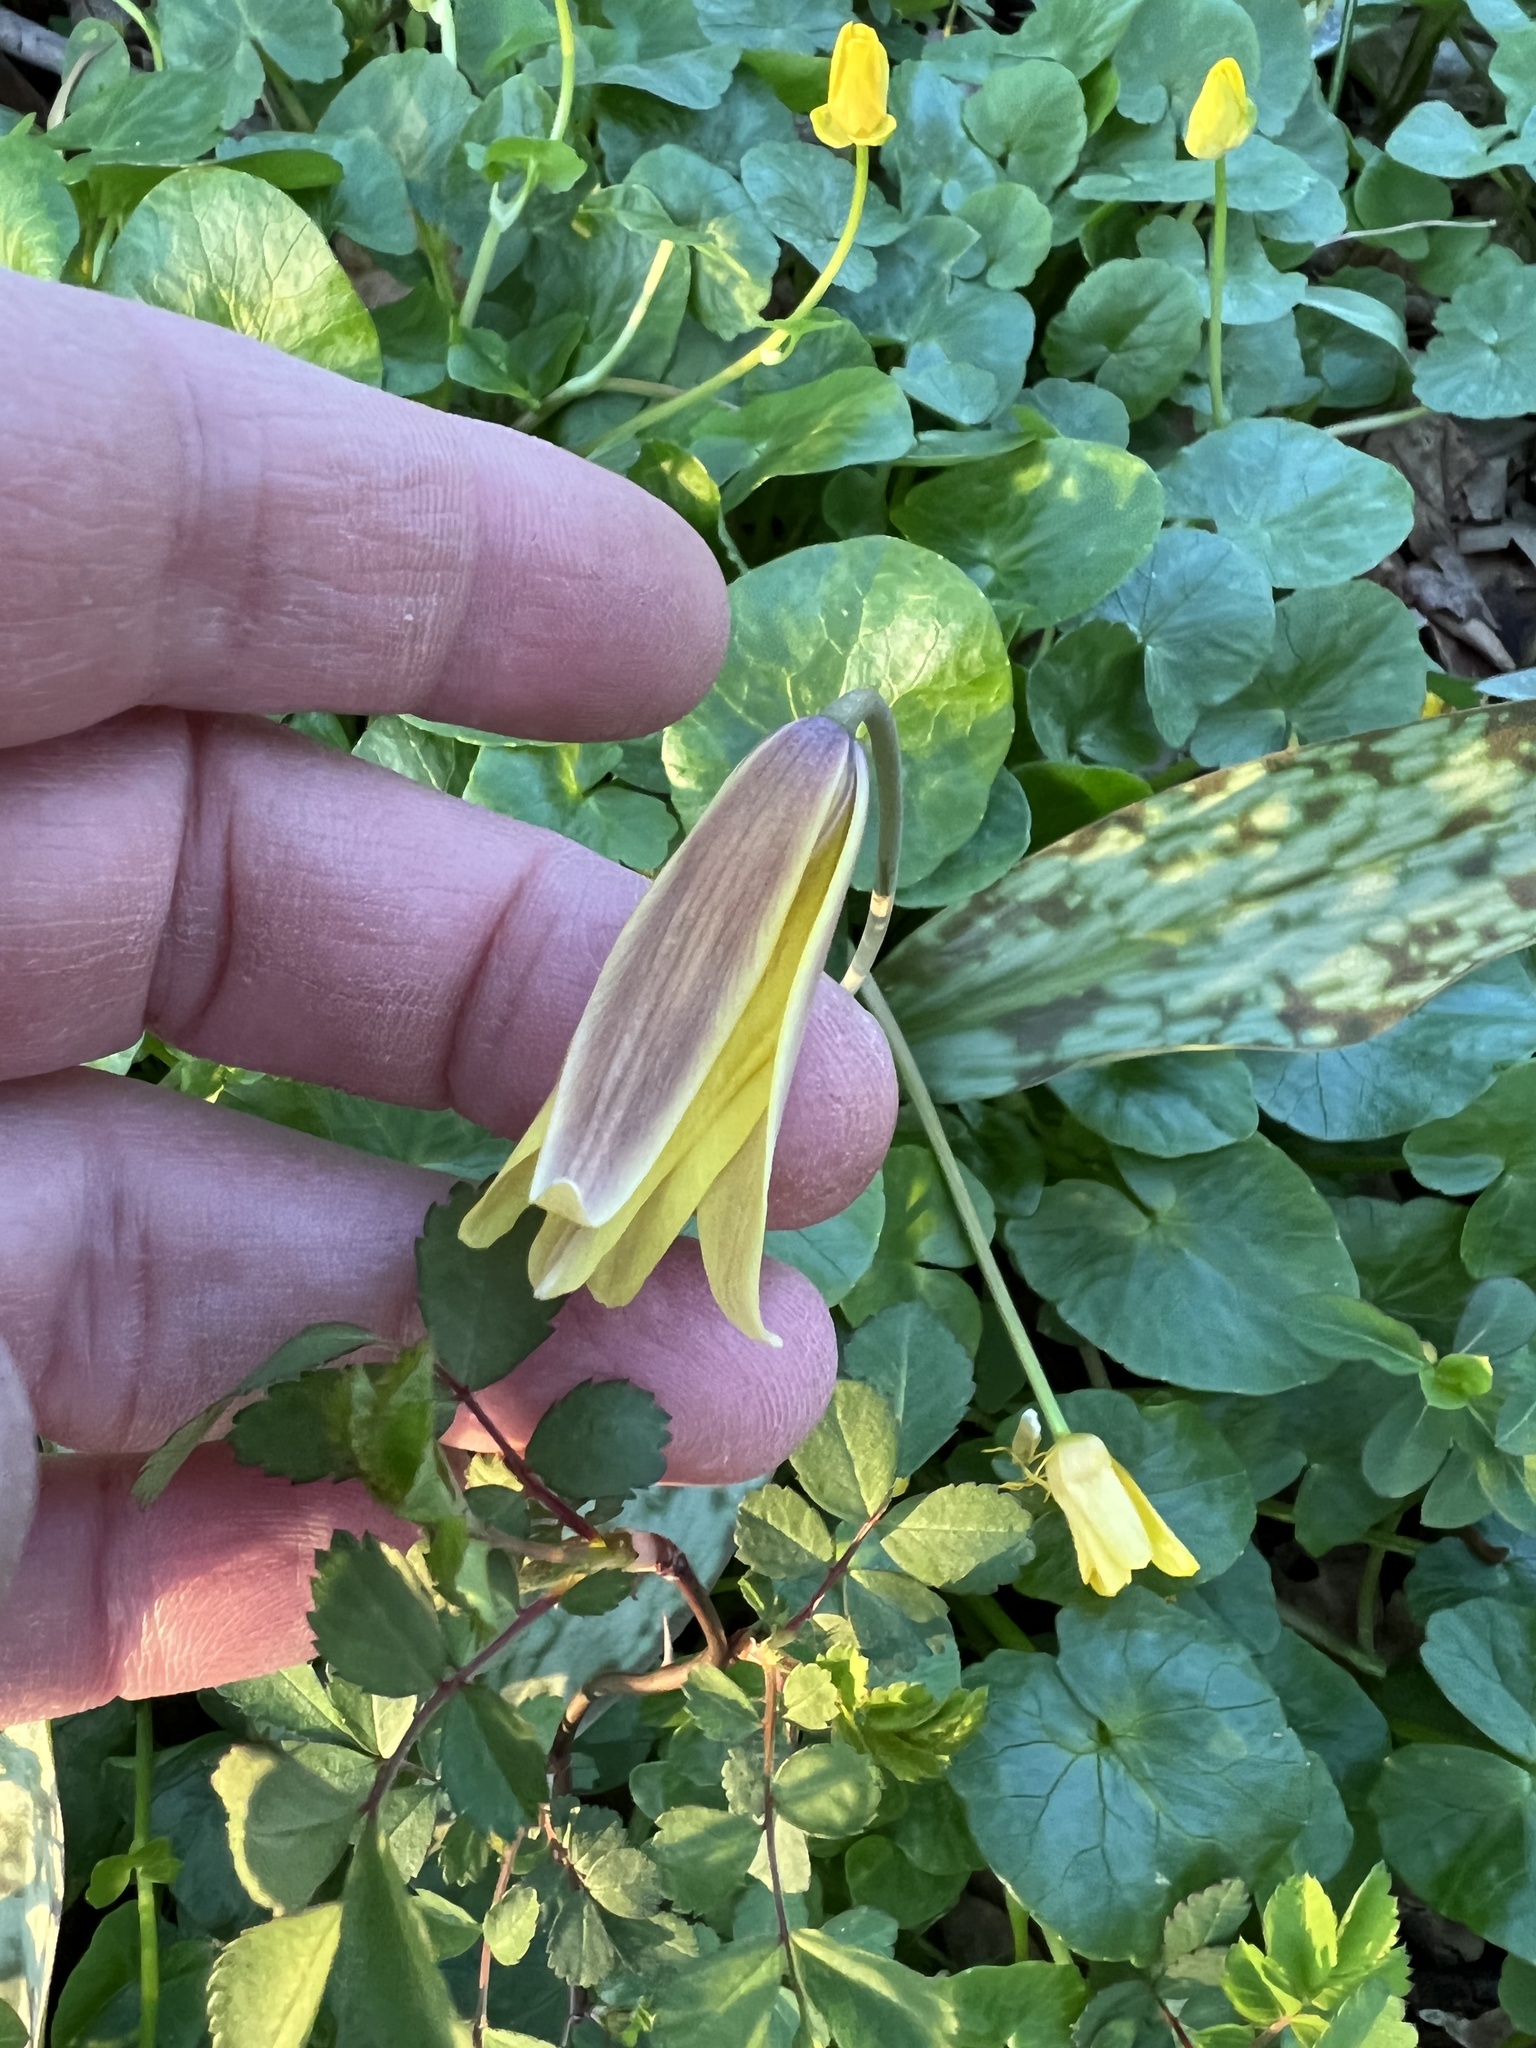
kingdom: Plantae
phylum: Tracheophyta
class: Liliopsida
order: Liliales
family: Liliaceae
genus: Erythronium
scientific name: Erythronium americanum
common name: Yellow adder's-tongue
